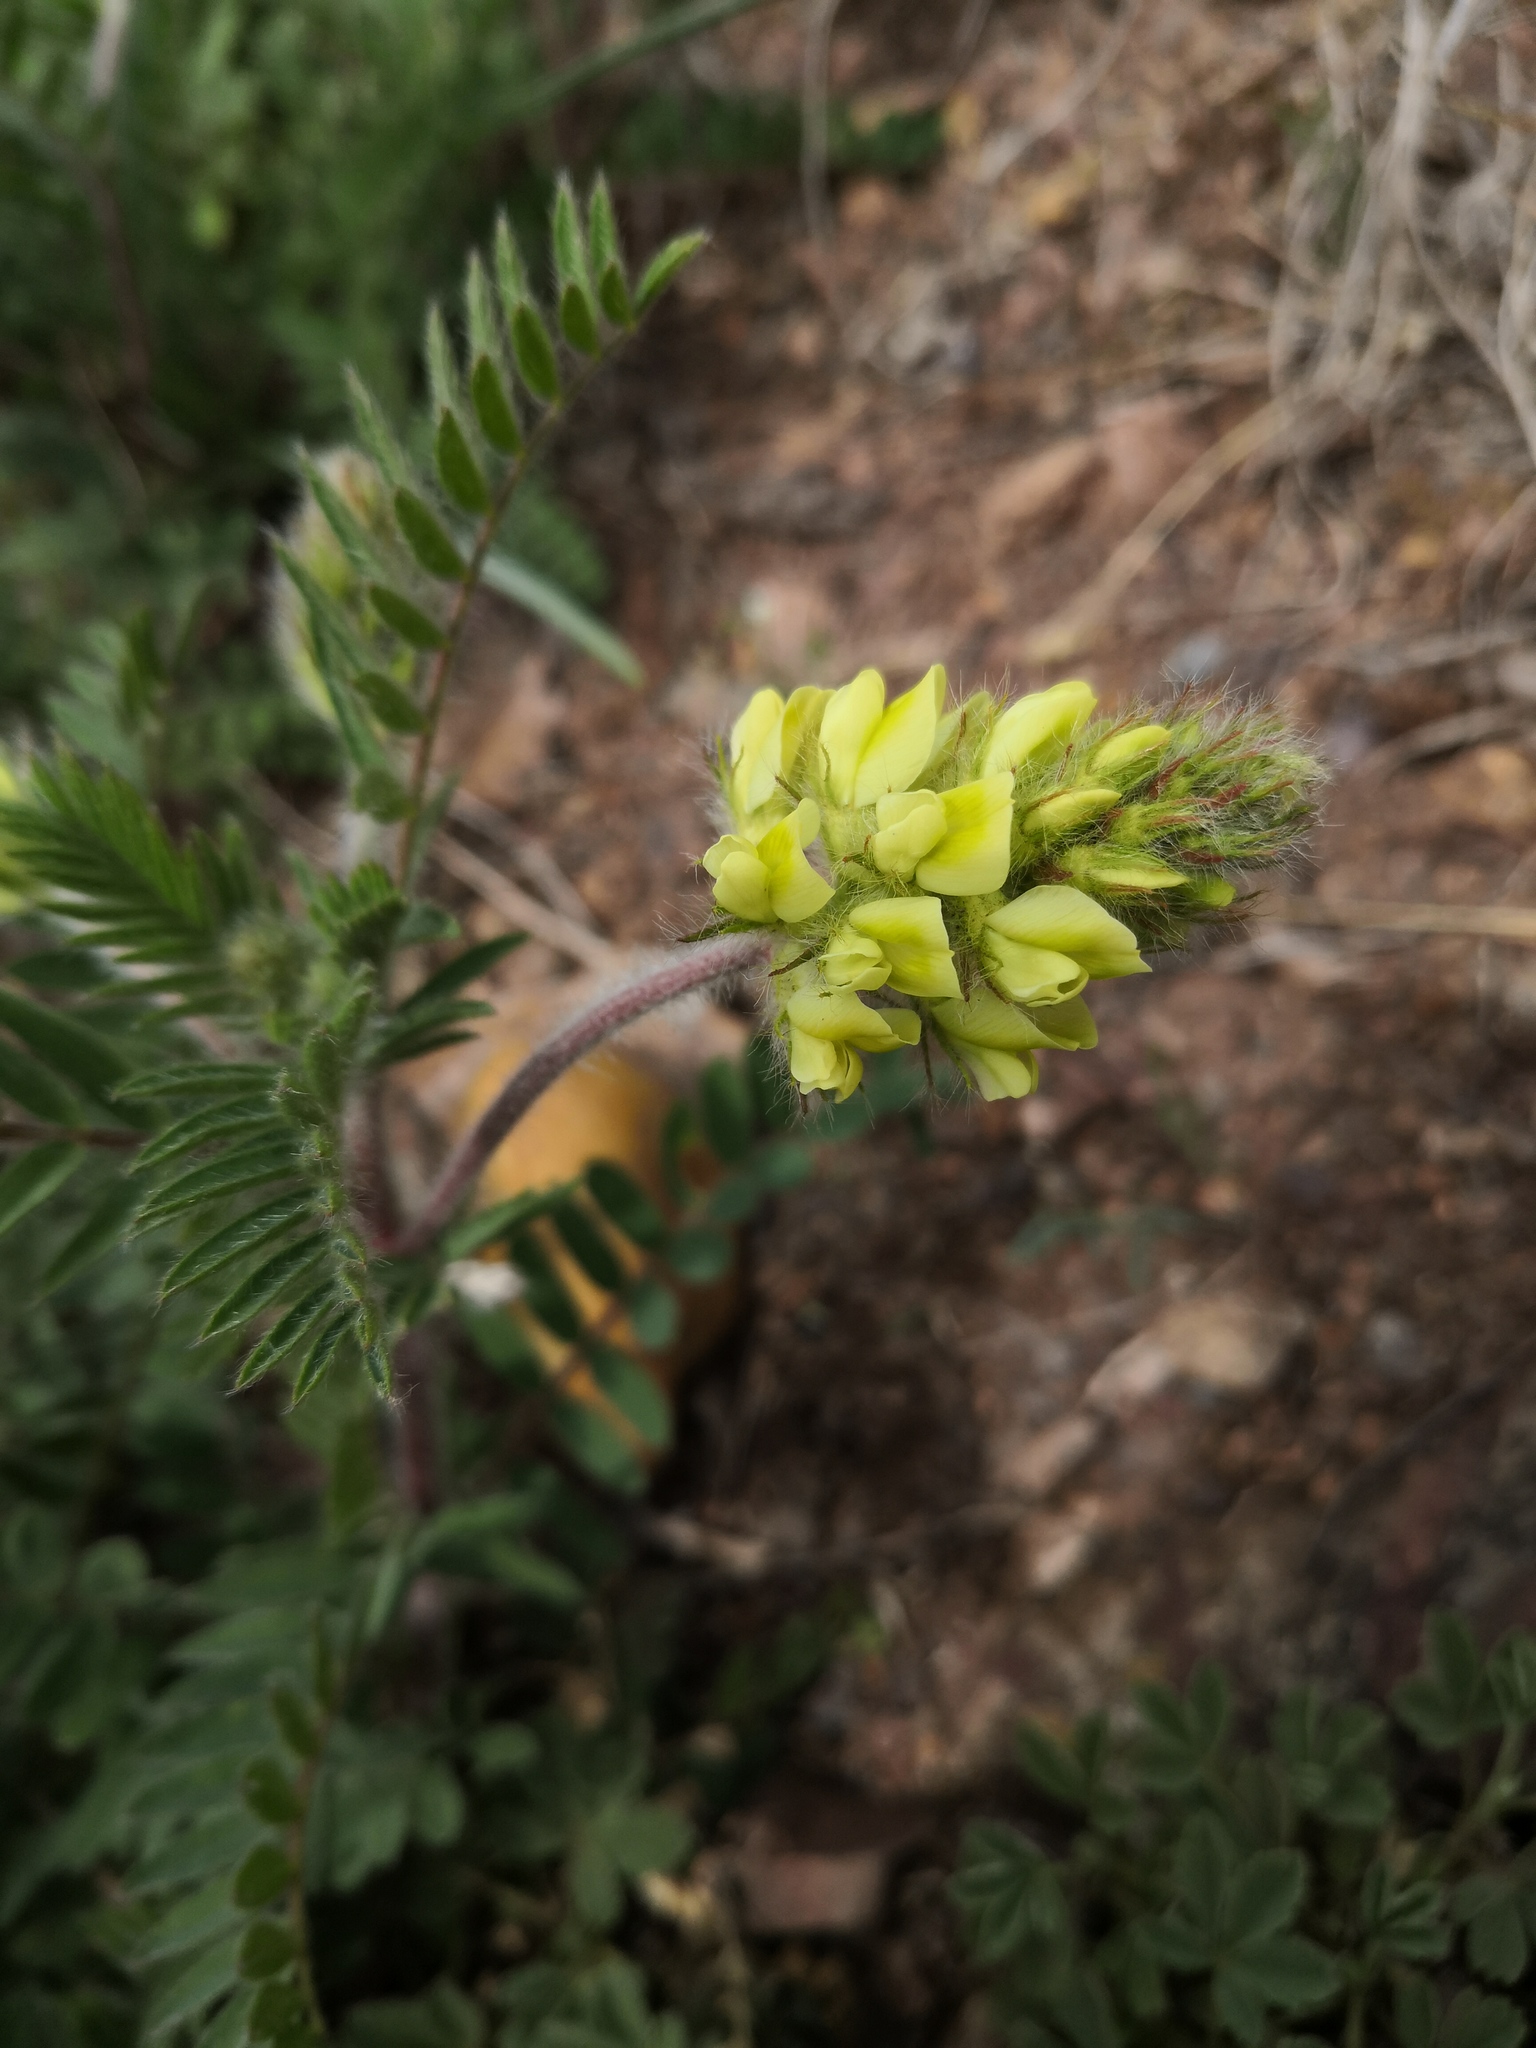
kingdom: Plantae
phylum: Tracheophyta
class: Magnoliopsida
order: Fabales
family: Fabaceae
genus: Oxytropis
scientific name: Oxytropis pilosa
